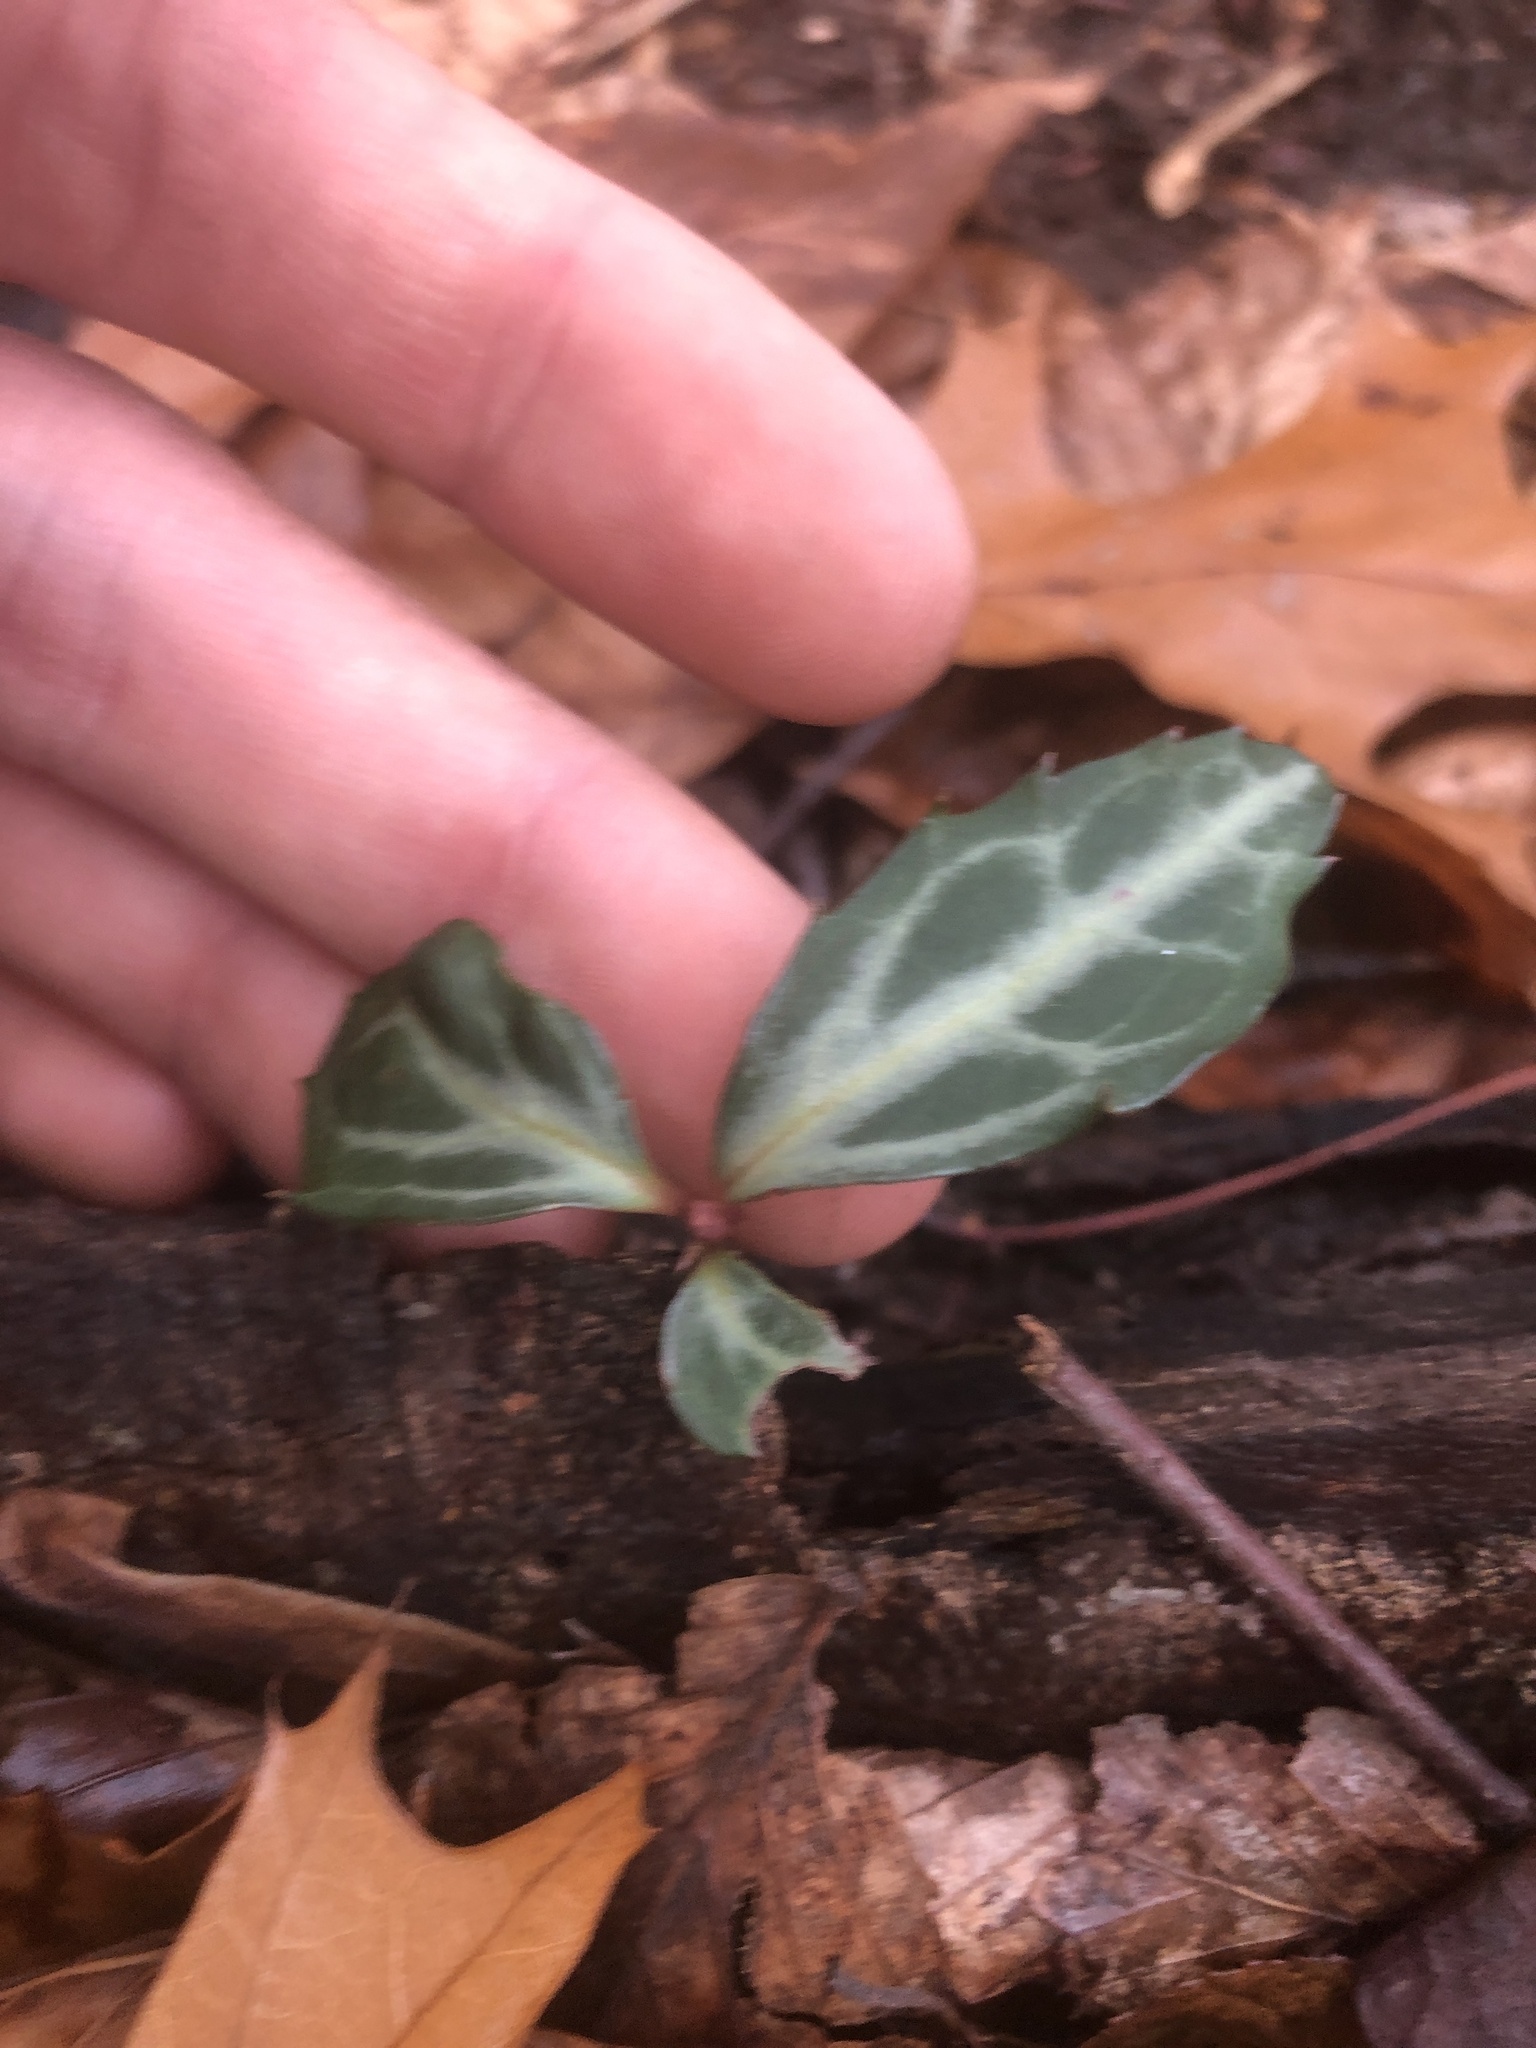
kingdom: Plantae
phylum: Tracheophyta
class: Magnoliopsida
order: Ericales
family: Ericaceae
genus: Chimaphila
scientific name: Chimaphila maculata
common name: Spotted pipsissewa
